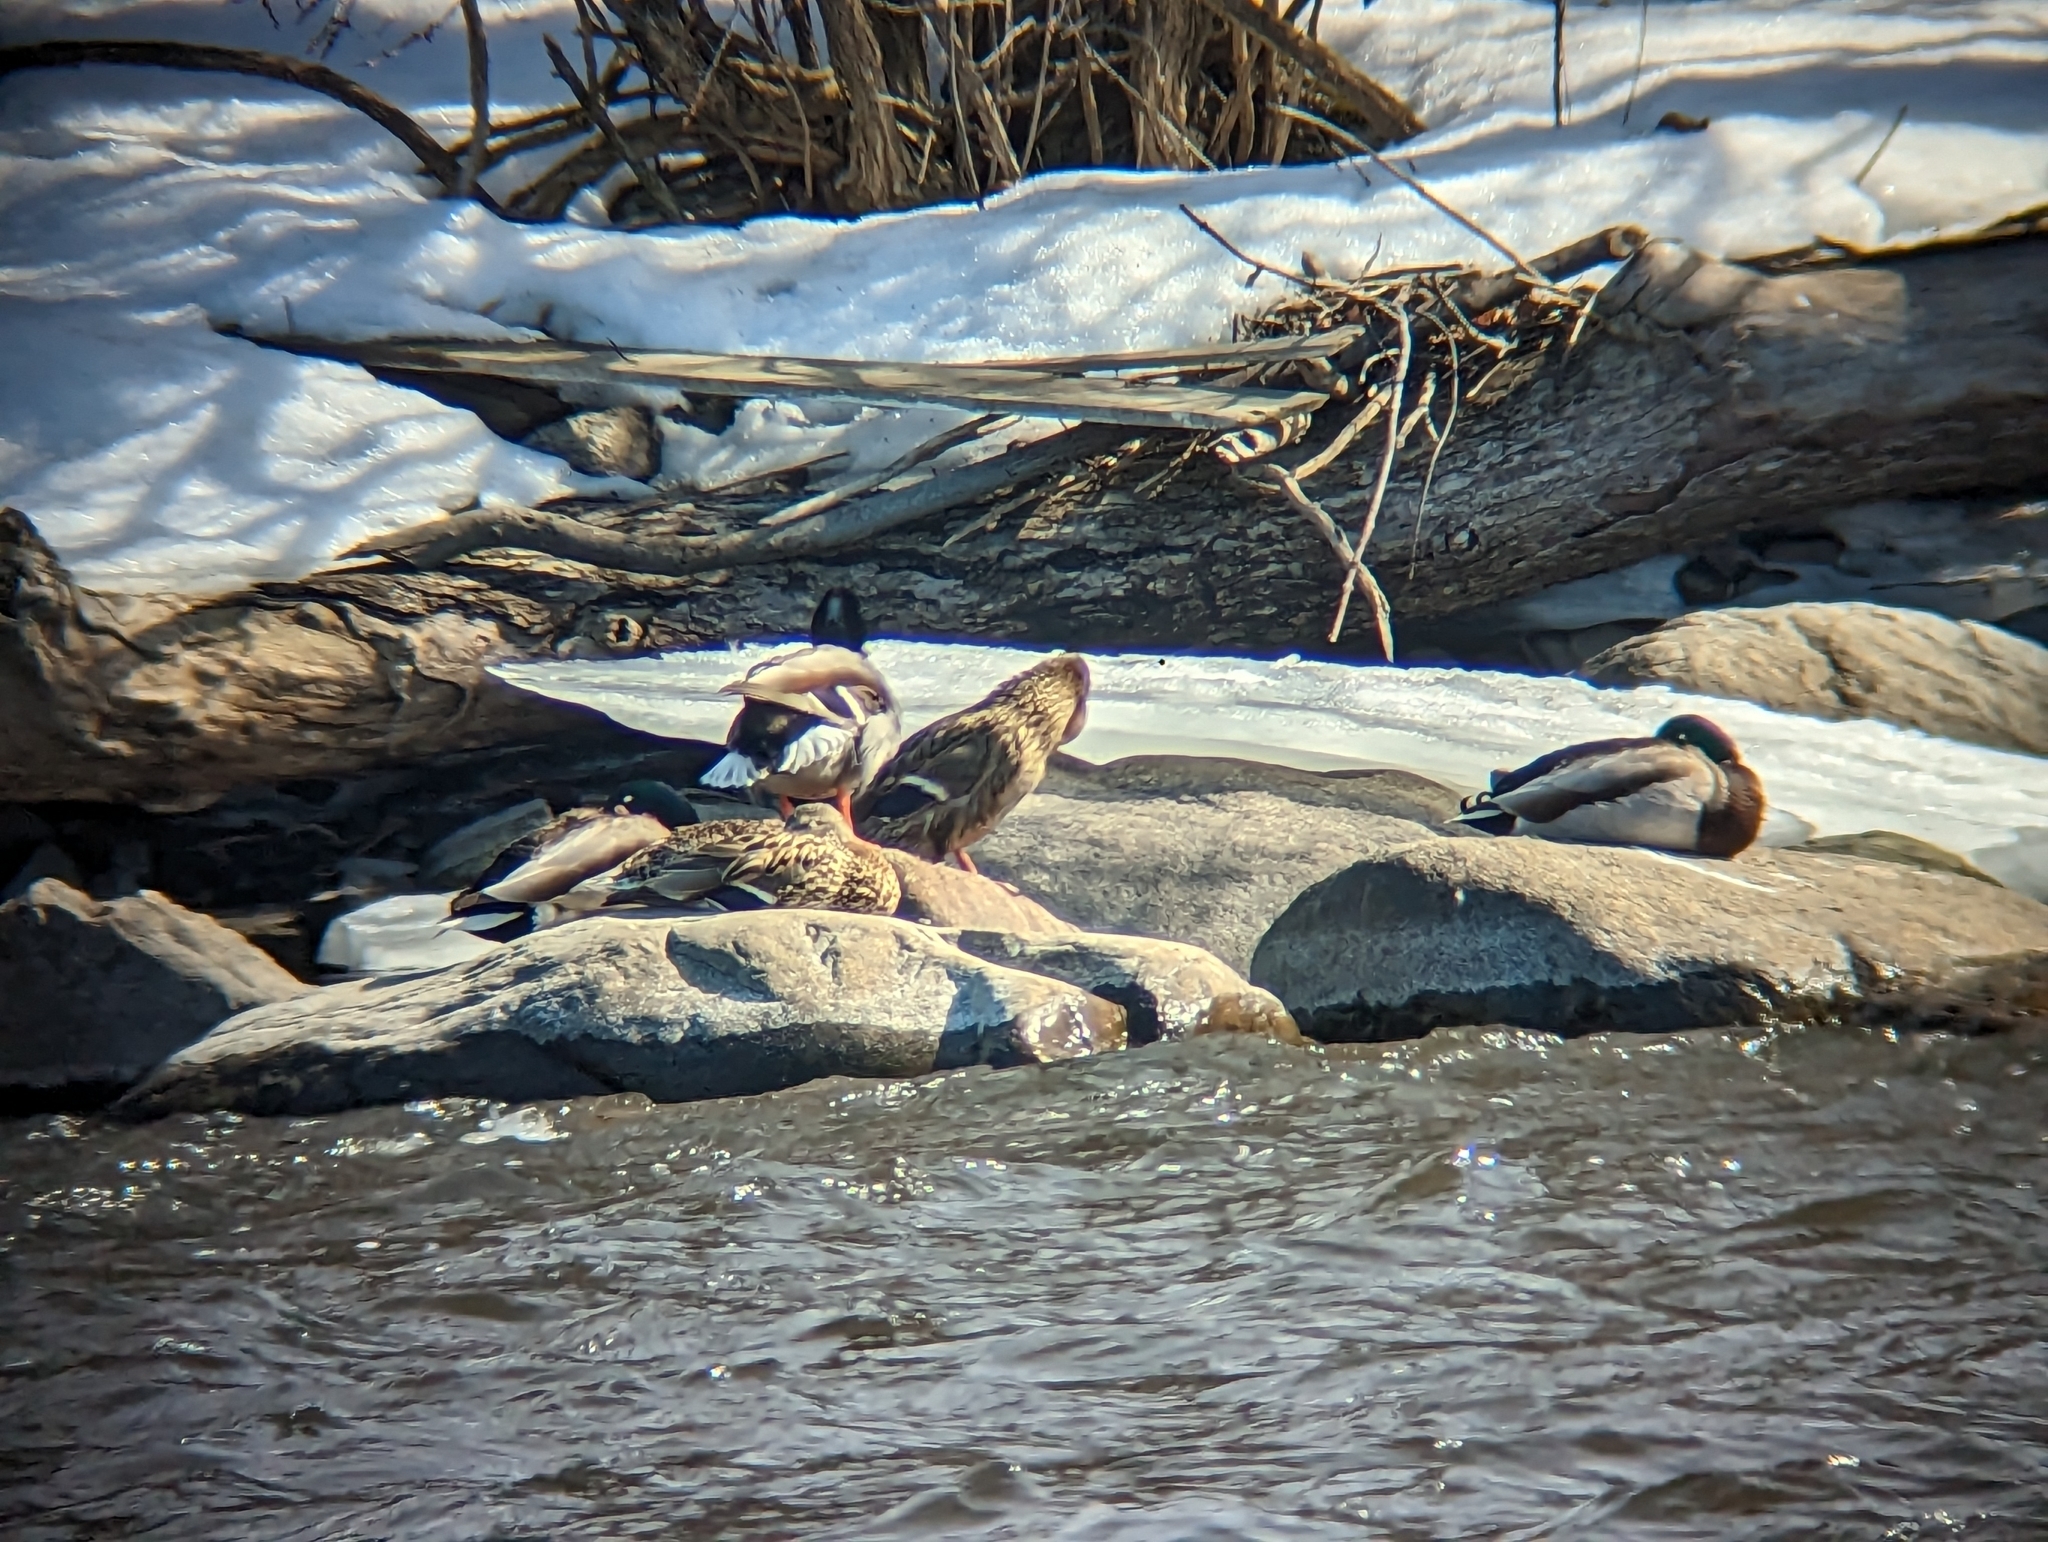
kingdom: Animalia
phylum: Chordata
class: Aves
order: Anseriformes
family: Anatidae
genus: Anas
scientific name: Anas platyrhynchos
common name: Mallard
